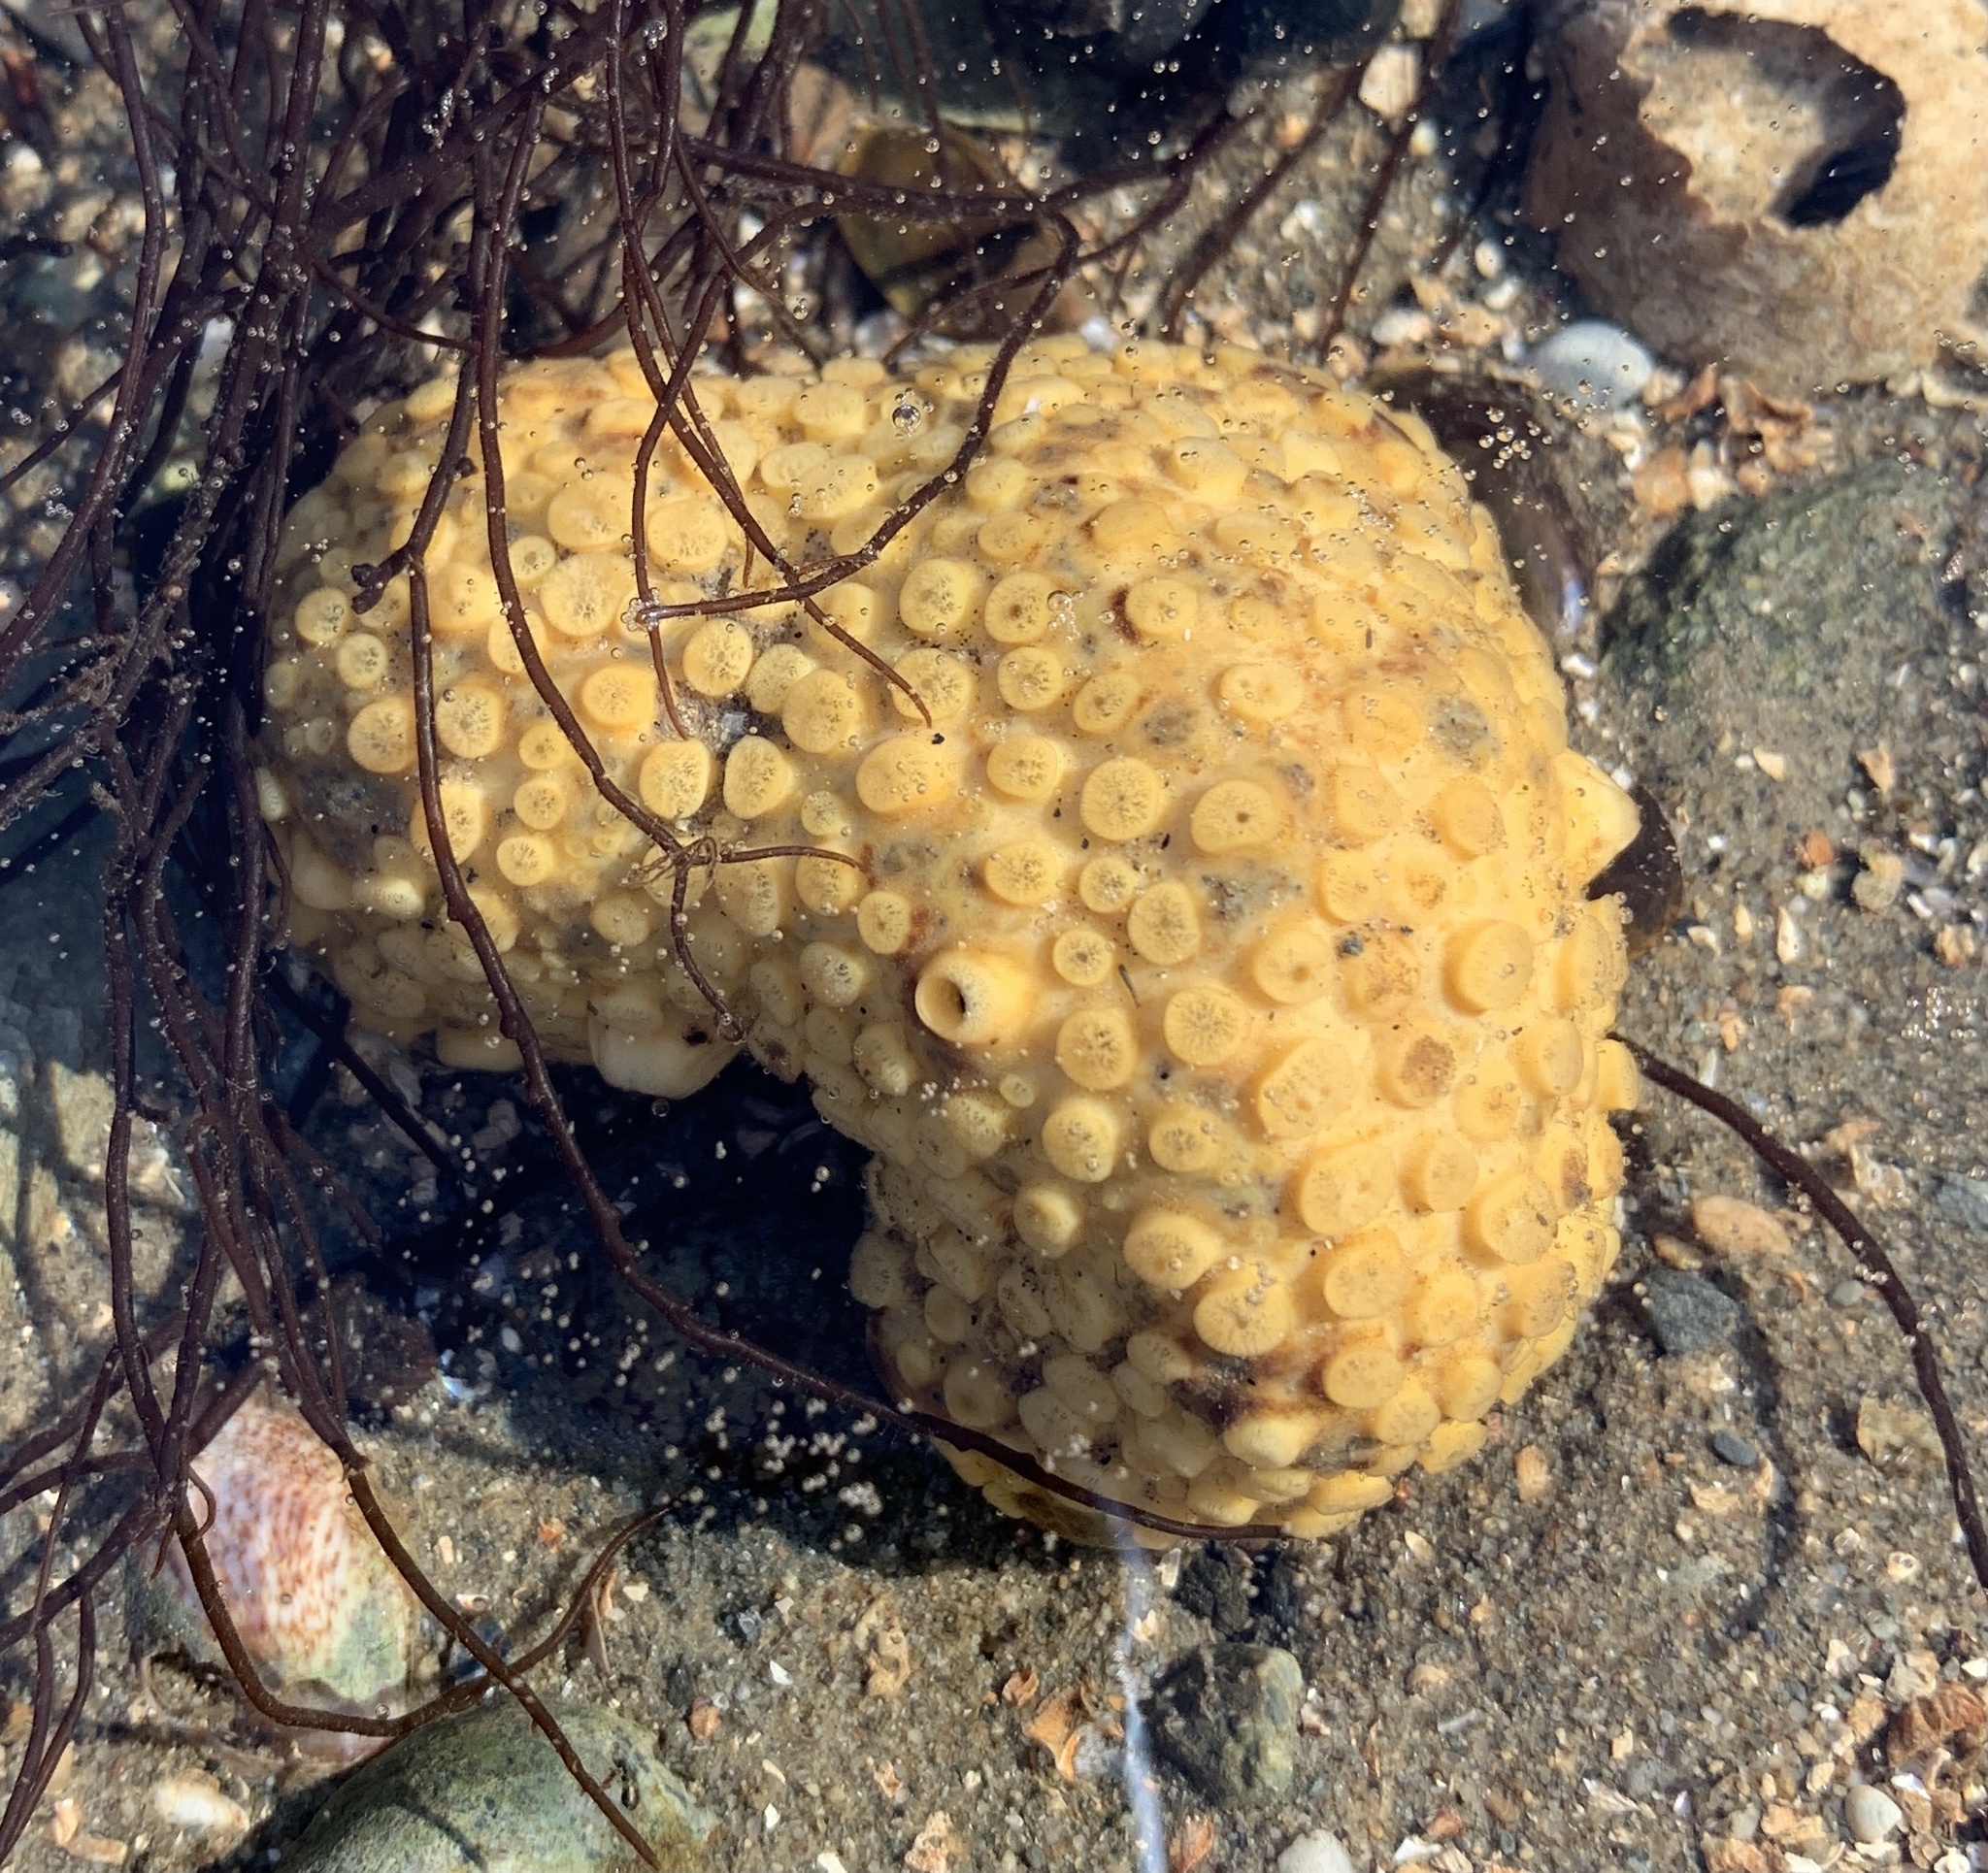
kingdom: Animalia
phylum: Porifera
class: Demospongiae
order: Clionaida
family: Clionaidae
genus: Cliona
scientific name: Cliona celata
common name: Boring sponge
